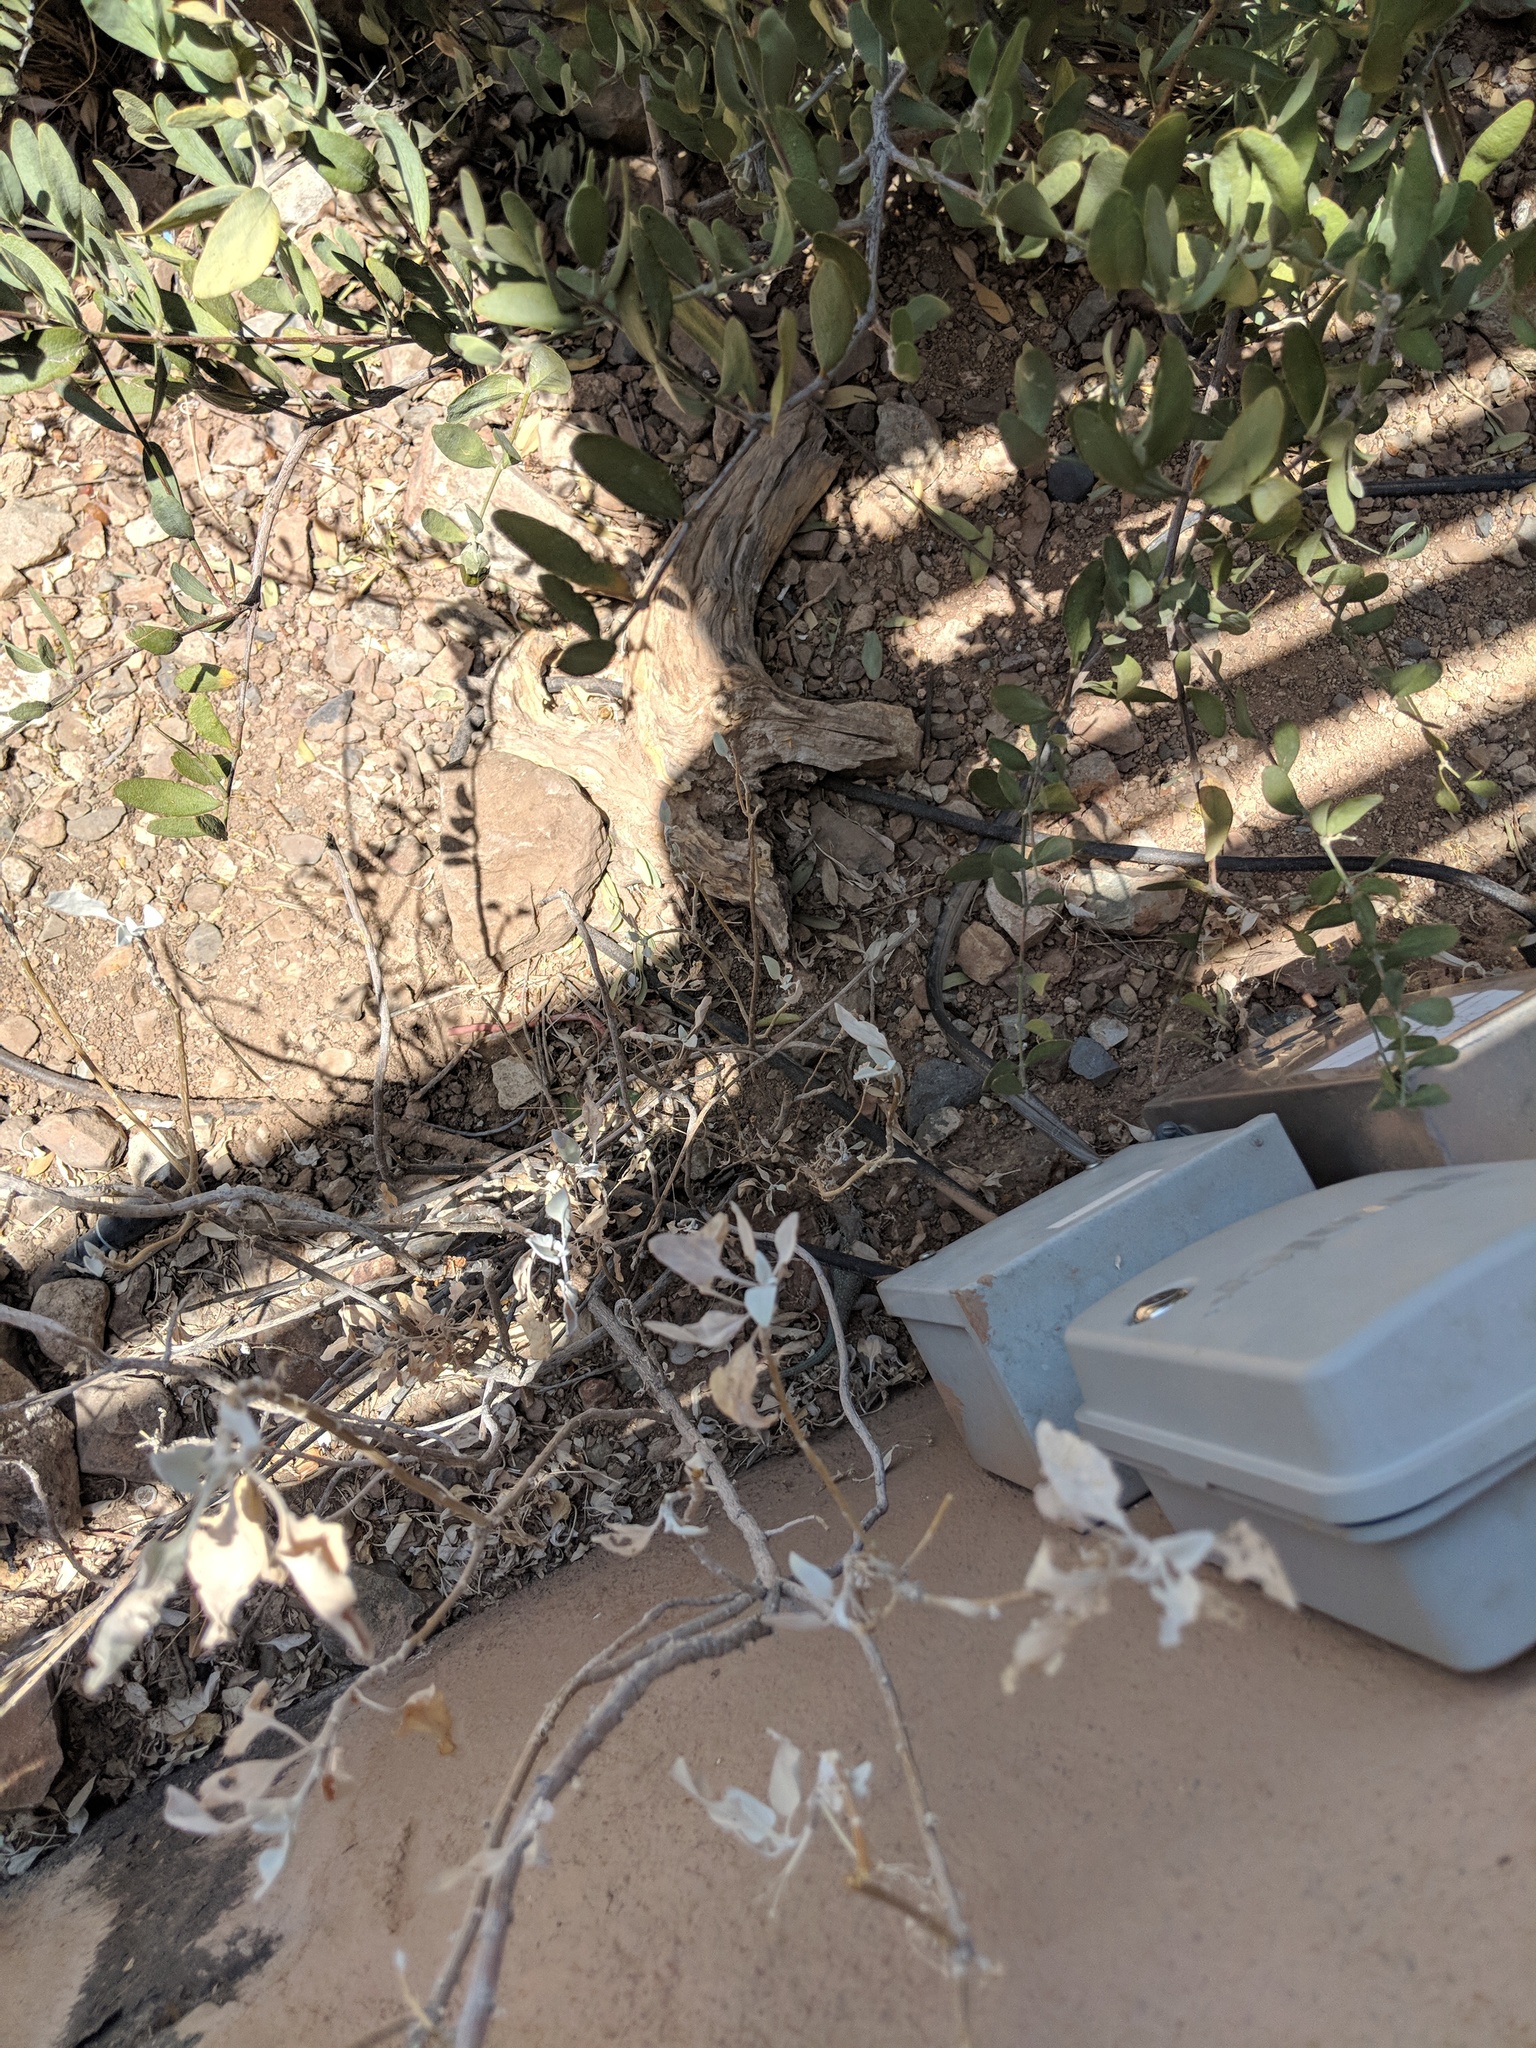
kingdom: Animalia
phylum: Chordata
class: Squamata
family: Phrynosomatidae
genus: Sceloporus
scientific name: Sceloporus clarkii
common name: Clark's spiny lizard
